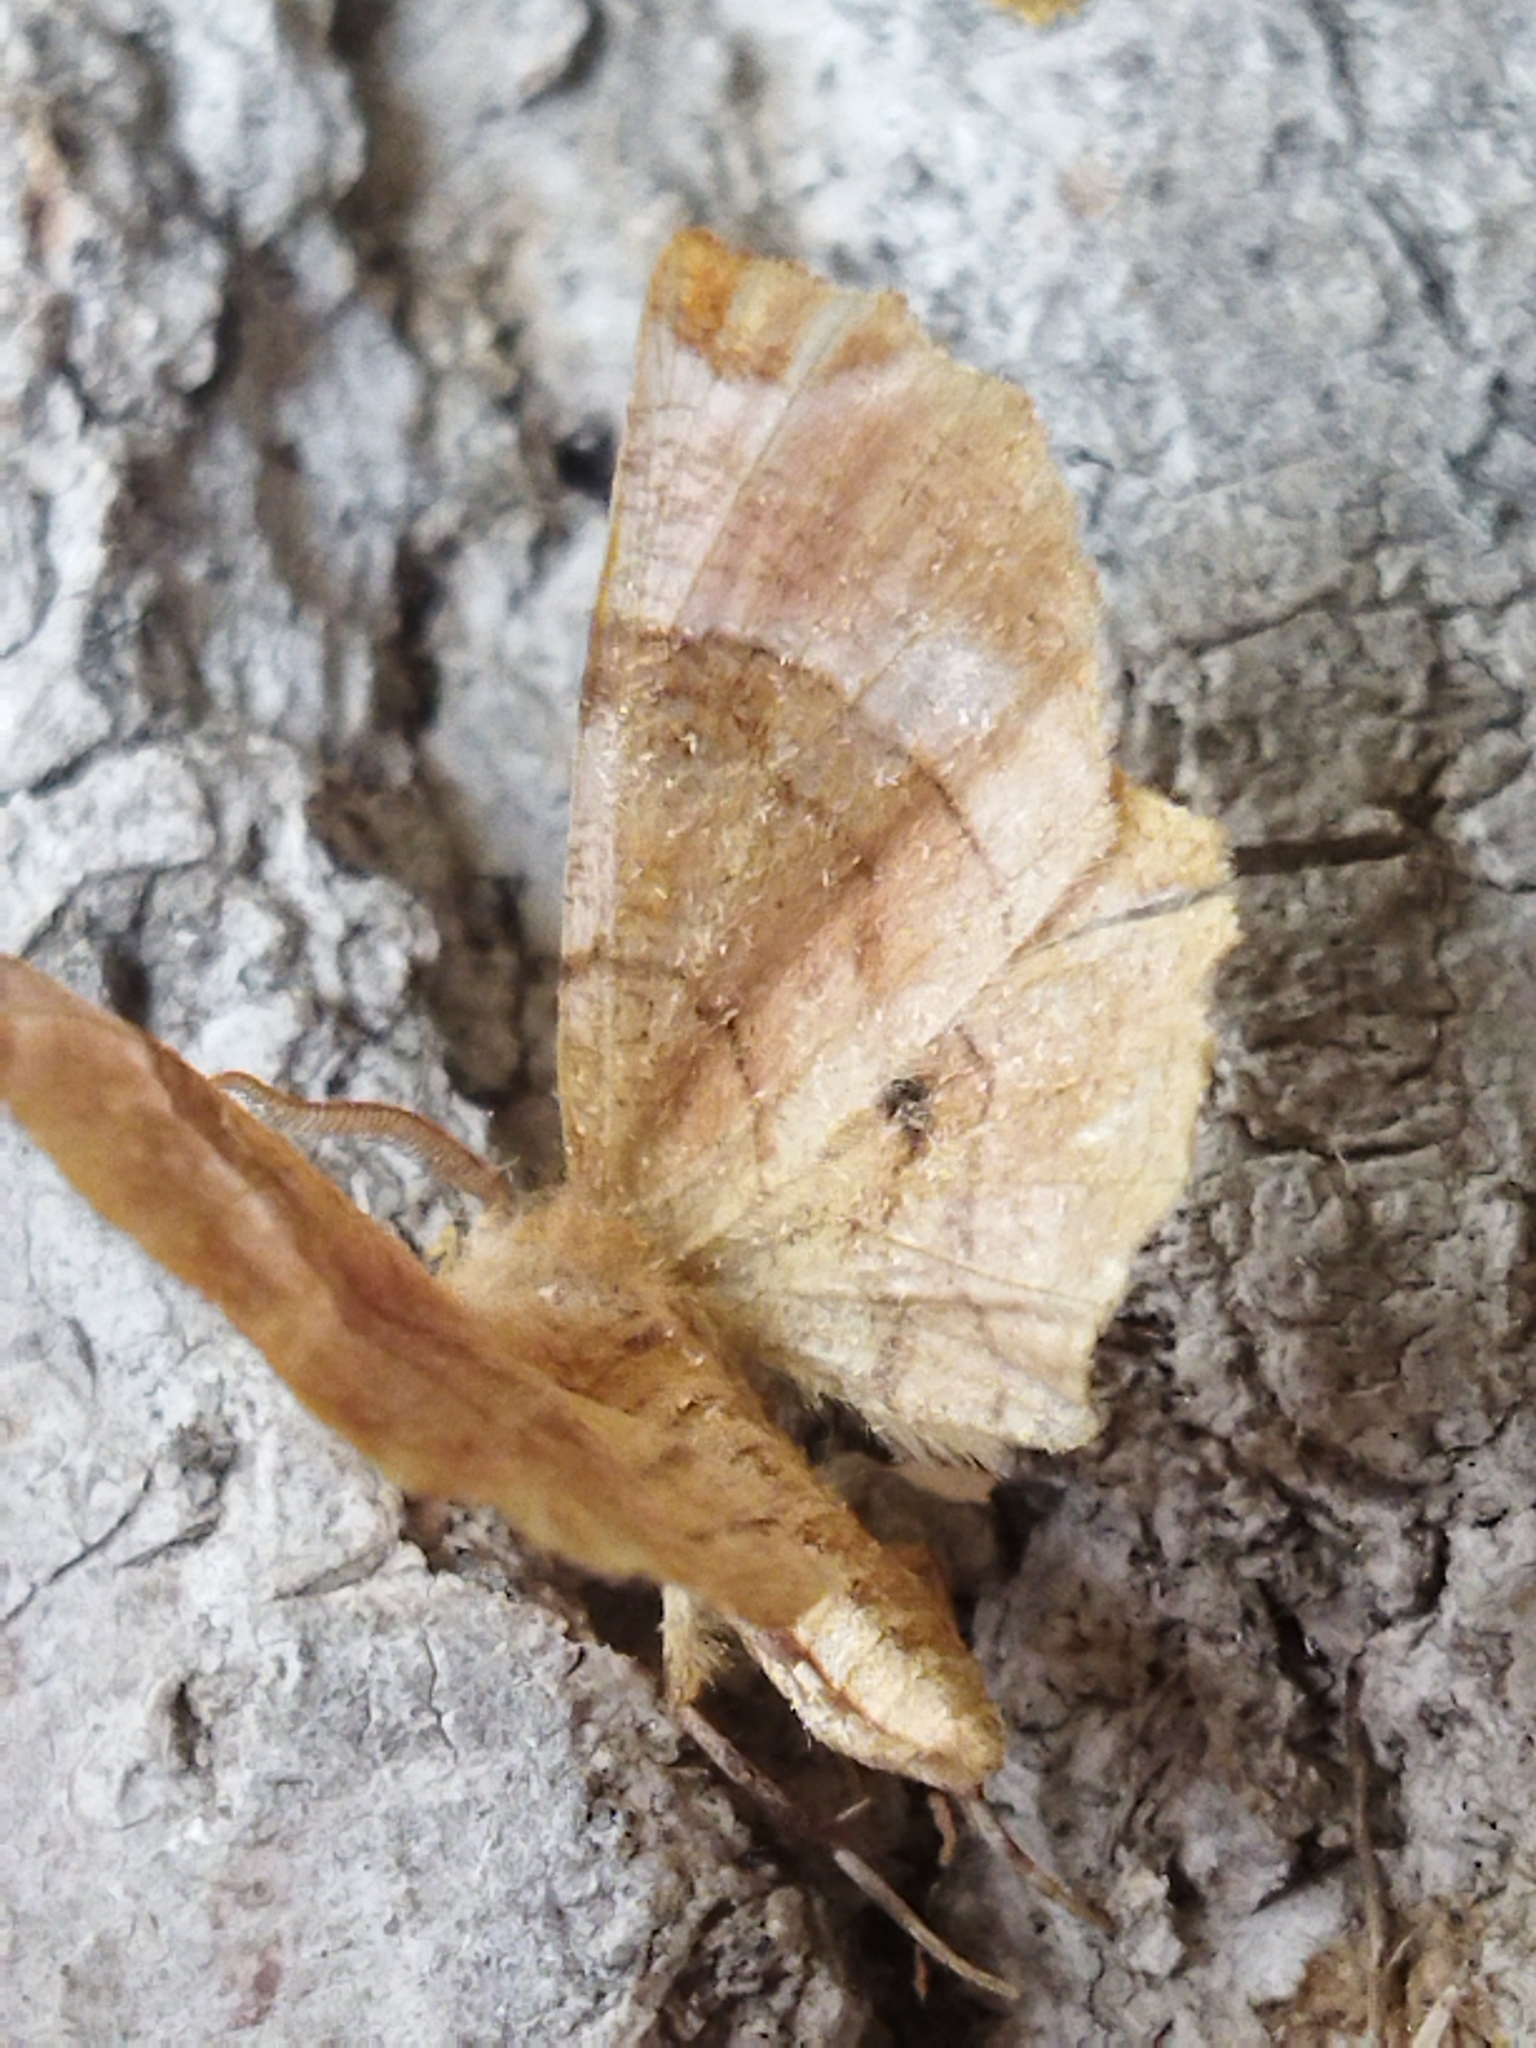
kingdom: Animalia
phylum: Arthropoda
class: Insecta
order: Lepidoptera
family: Geometridae
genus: Selenia
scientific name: Selenia lunularia
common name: Lunar thorn
